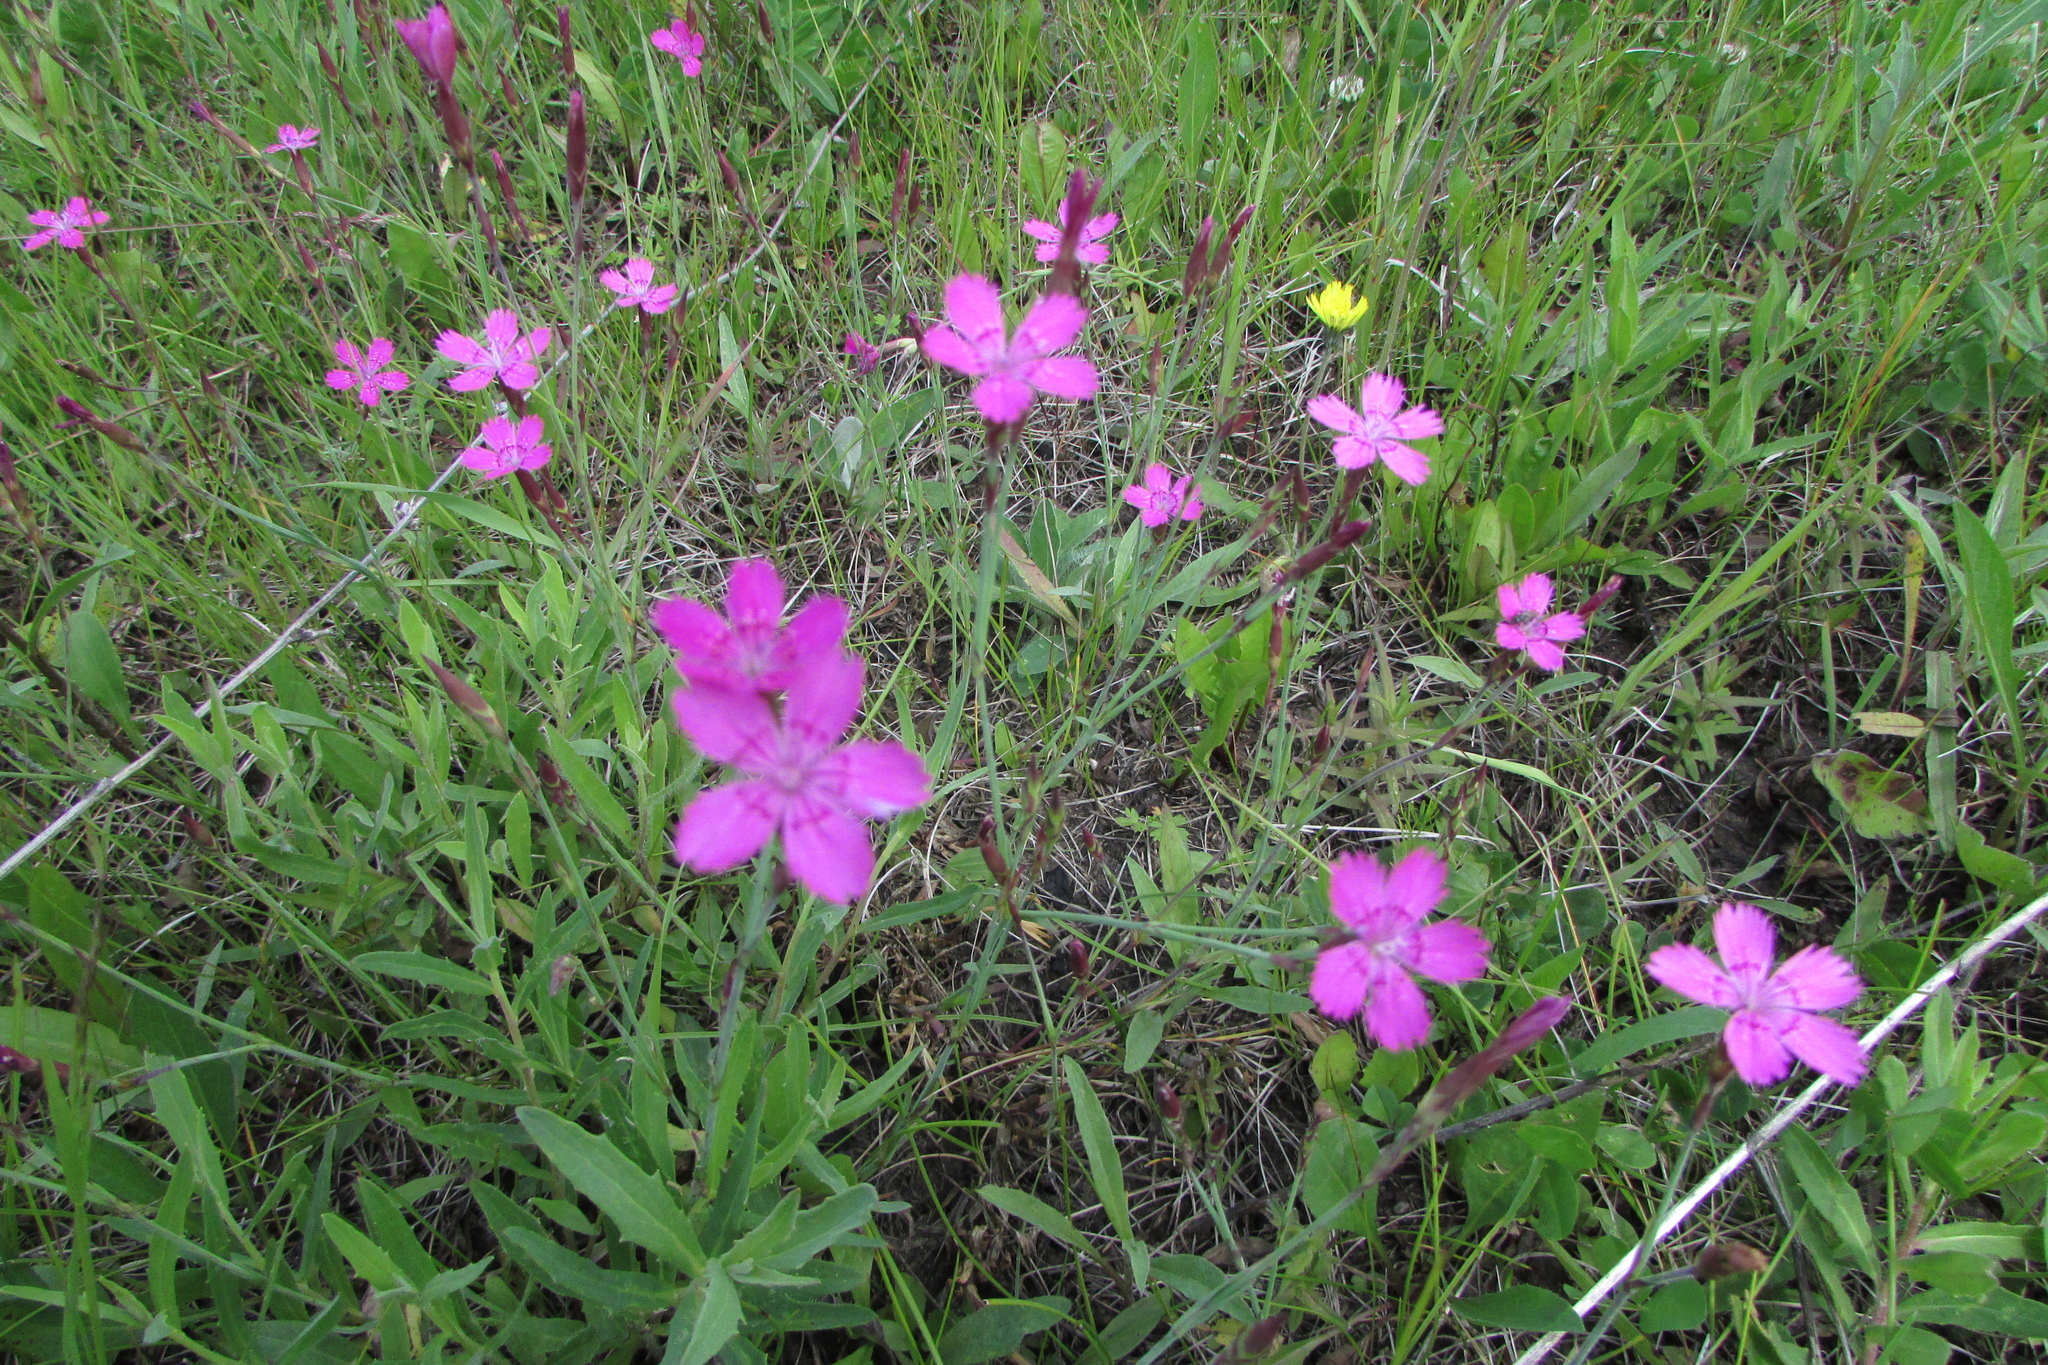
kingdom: Plantae
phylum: Tracheophyta
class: Magnoliopsida
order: Caryophyllales
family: Caryophyllaceae
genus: Dianthus
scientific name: Dianthus deltoides
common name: Maiden pink
